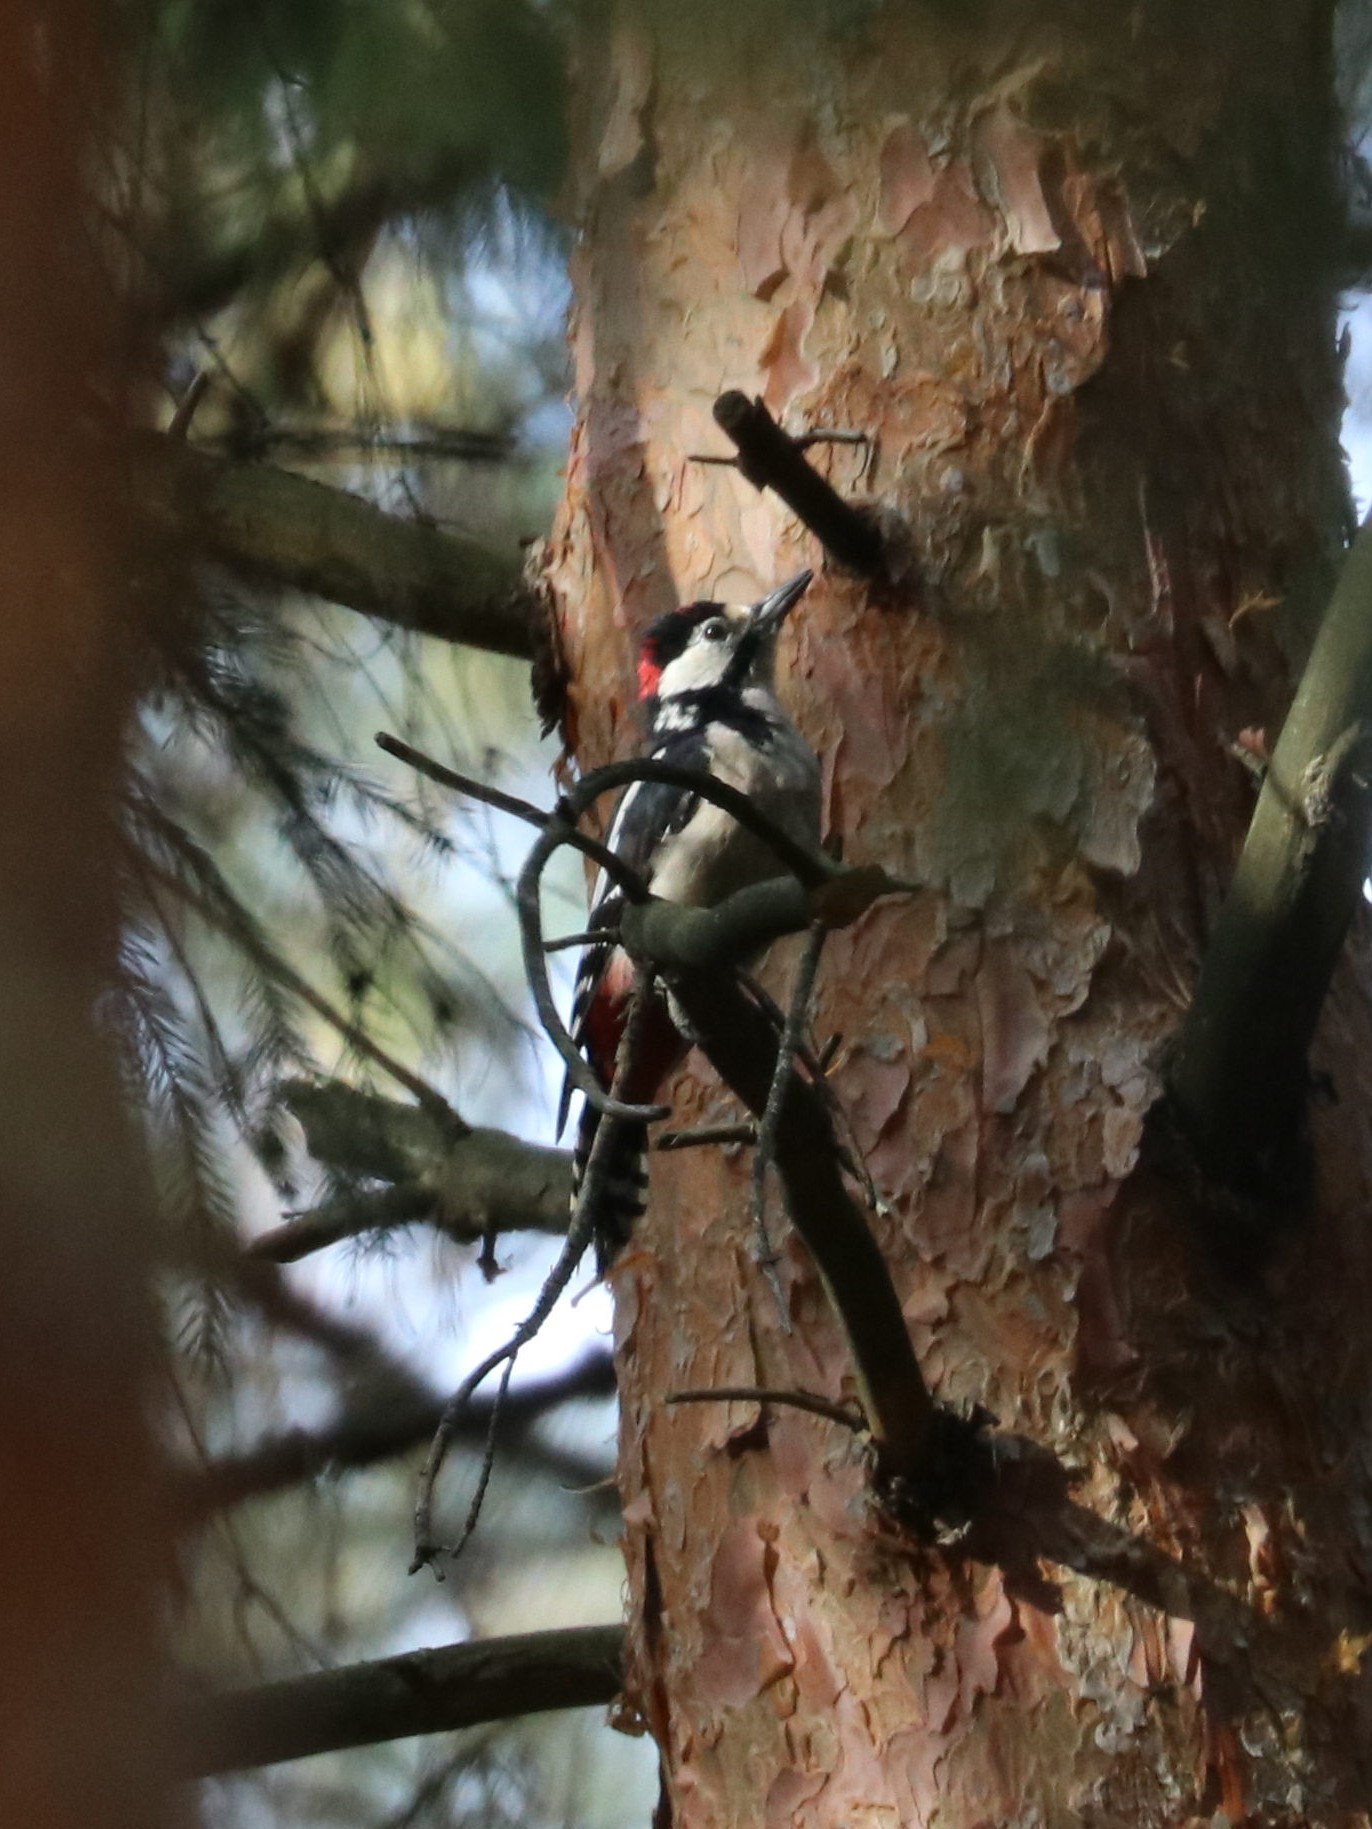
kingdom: Animalia
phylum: Chordata
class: Aves
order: Piciformes
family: Picidae
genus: Dendrocopos
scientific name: Dendrocopos major
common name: Great spotted woodpecker
